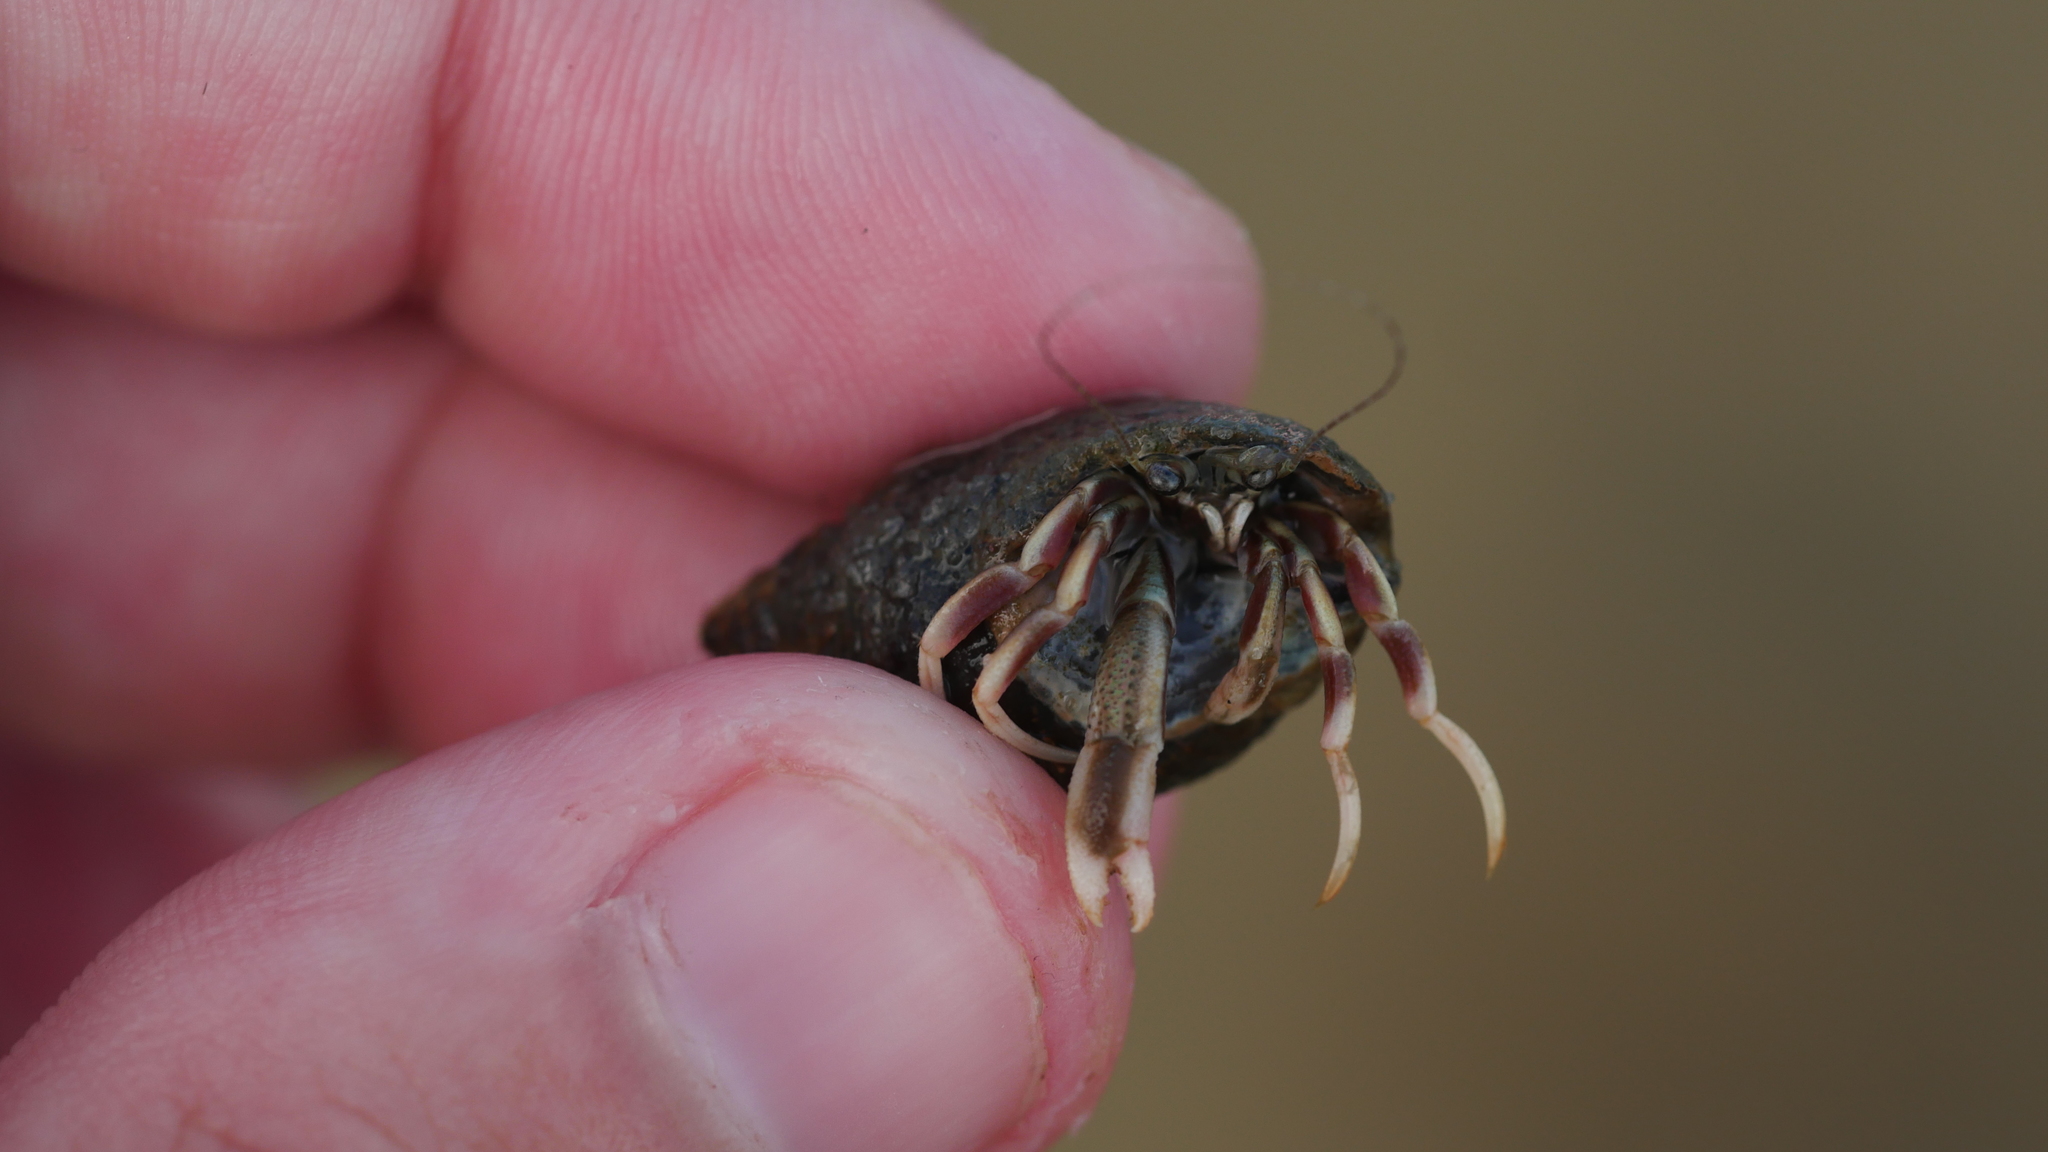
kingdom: Animalia
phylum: Arthropoda
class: Malacostraca
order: Decapoda
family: Paguridae
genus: Pagurus
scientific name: Pagurus longicarpus
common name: Long-armed hermit crab
